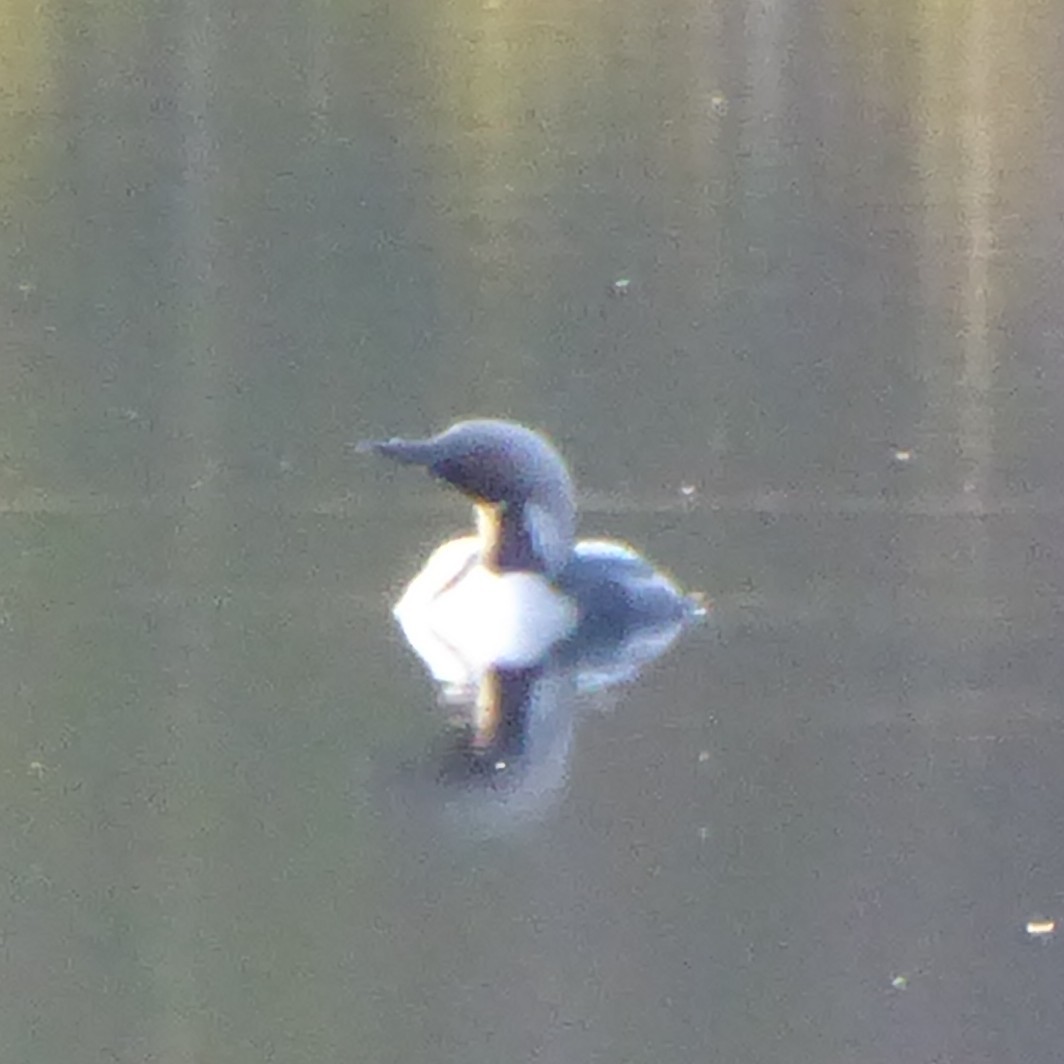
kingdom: Animalia
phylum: Chordata
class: Aves
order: Gaviiformes
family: Gaviidae
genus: Gavia
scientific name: Gavia arctica
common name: Black-throated loon
